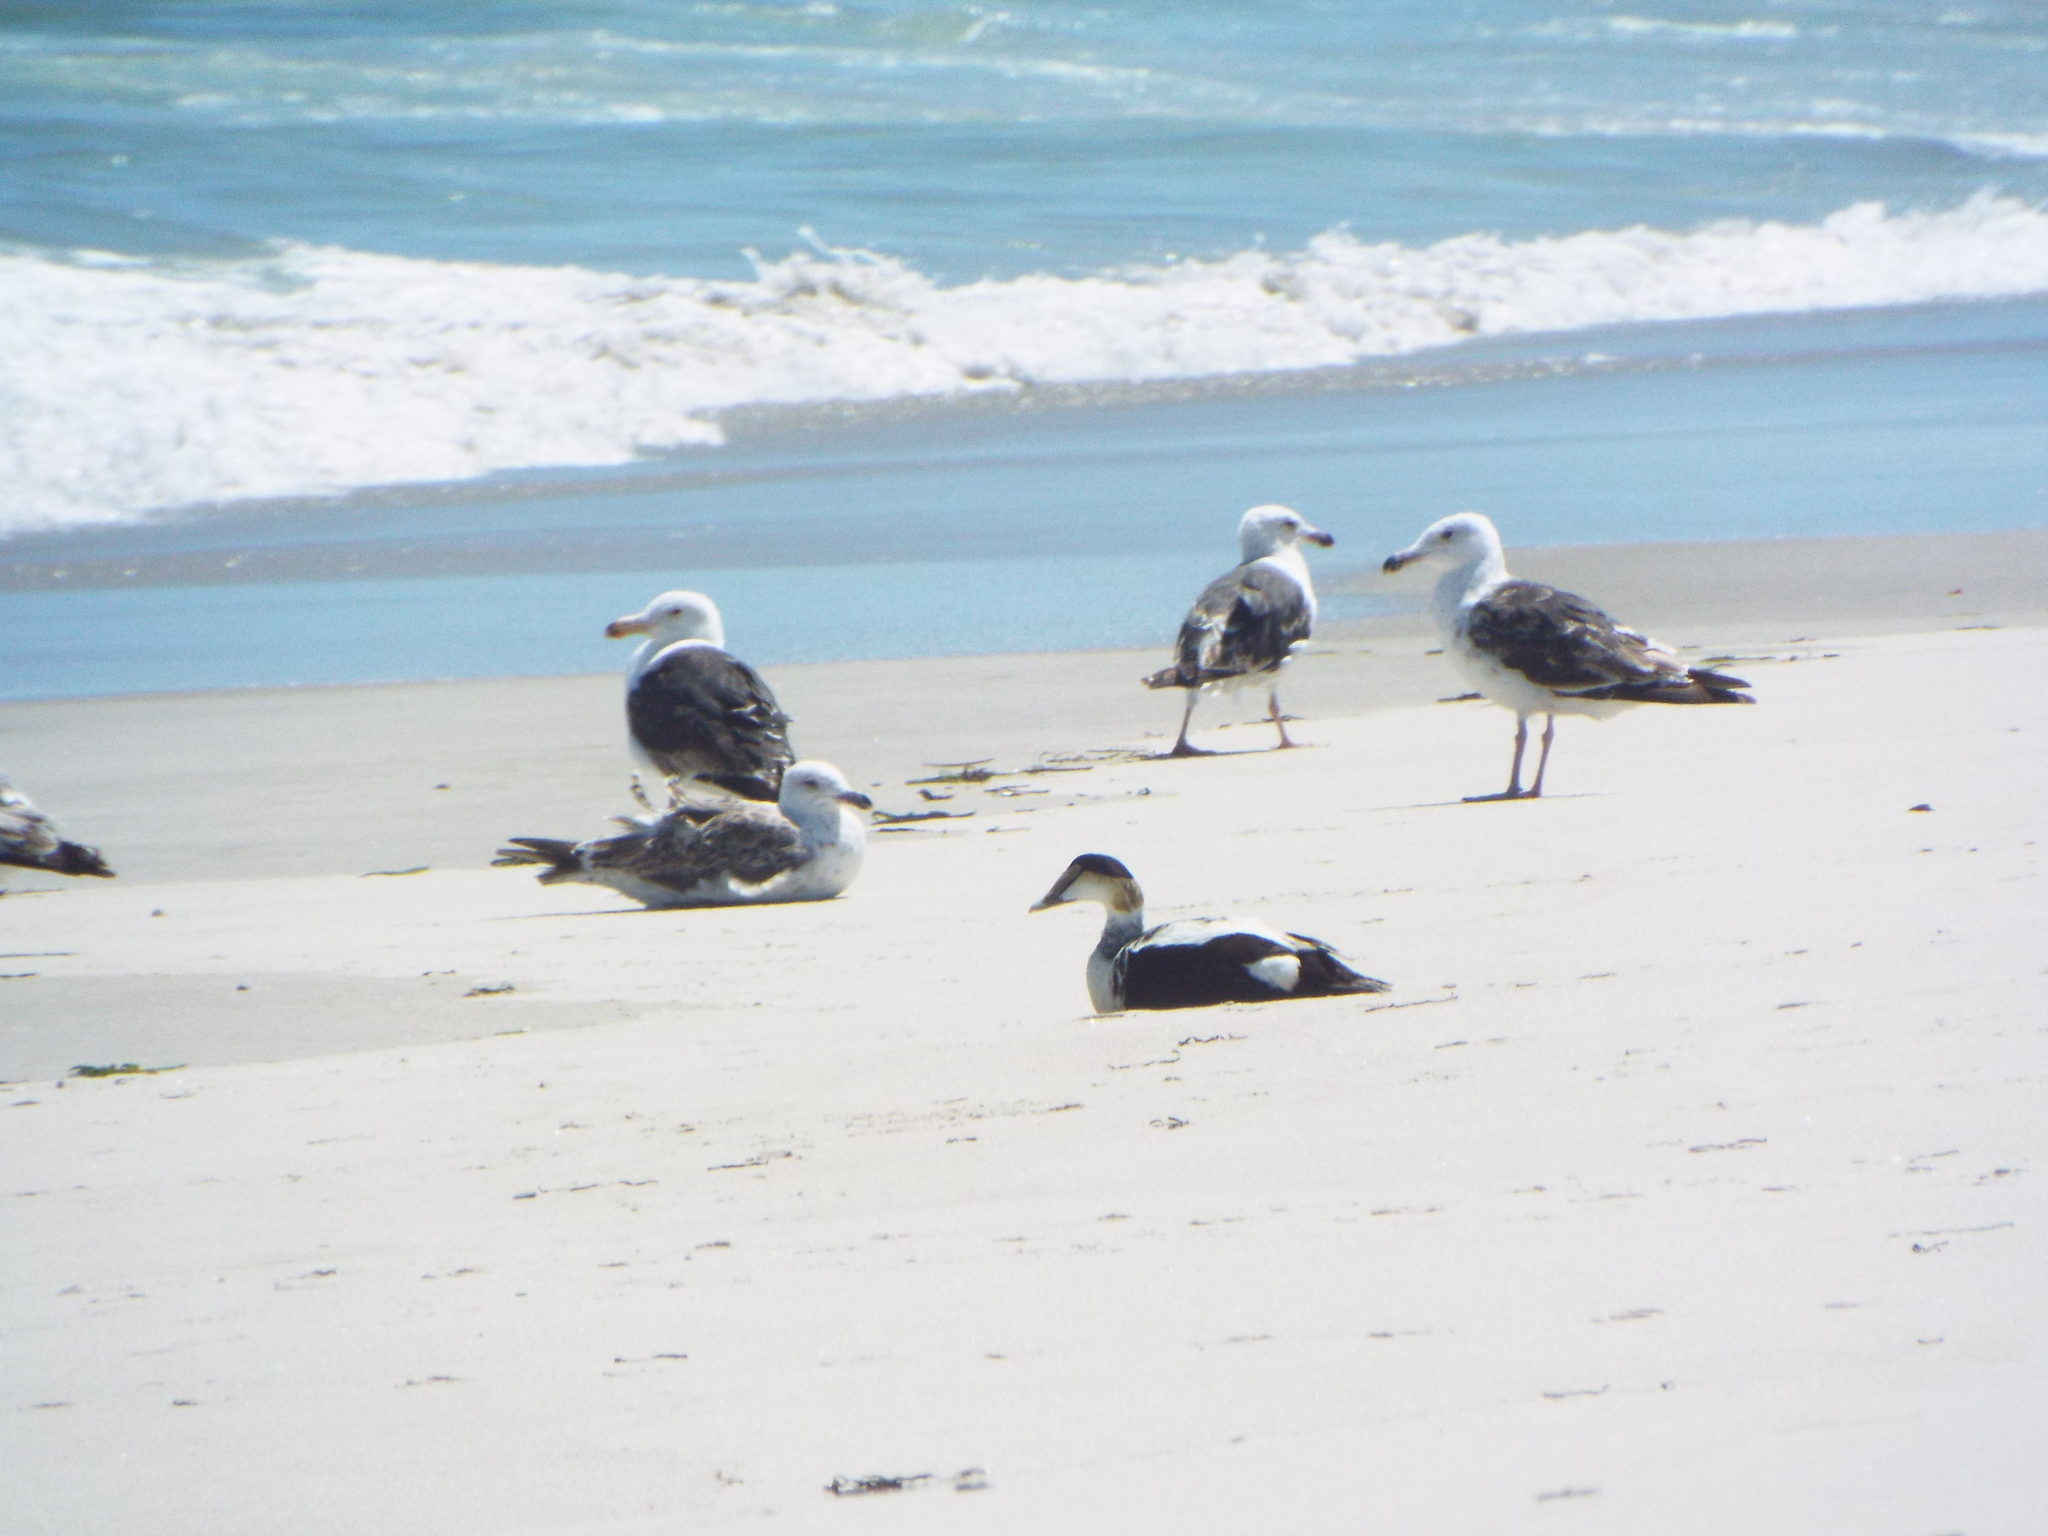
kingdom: Animalia
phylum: Chordata
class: Aves
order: Anseriformes
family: Anatidae
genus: Somateria
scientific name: Somateria mollissima
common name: Common eider
